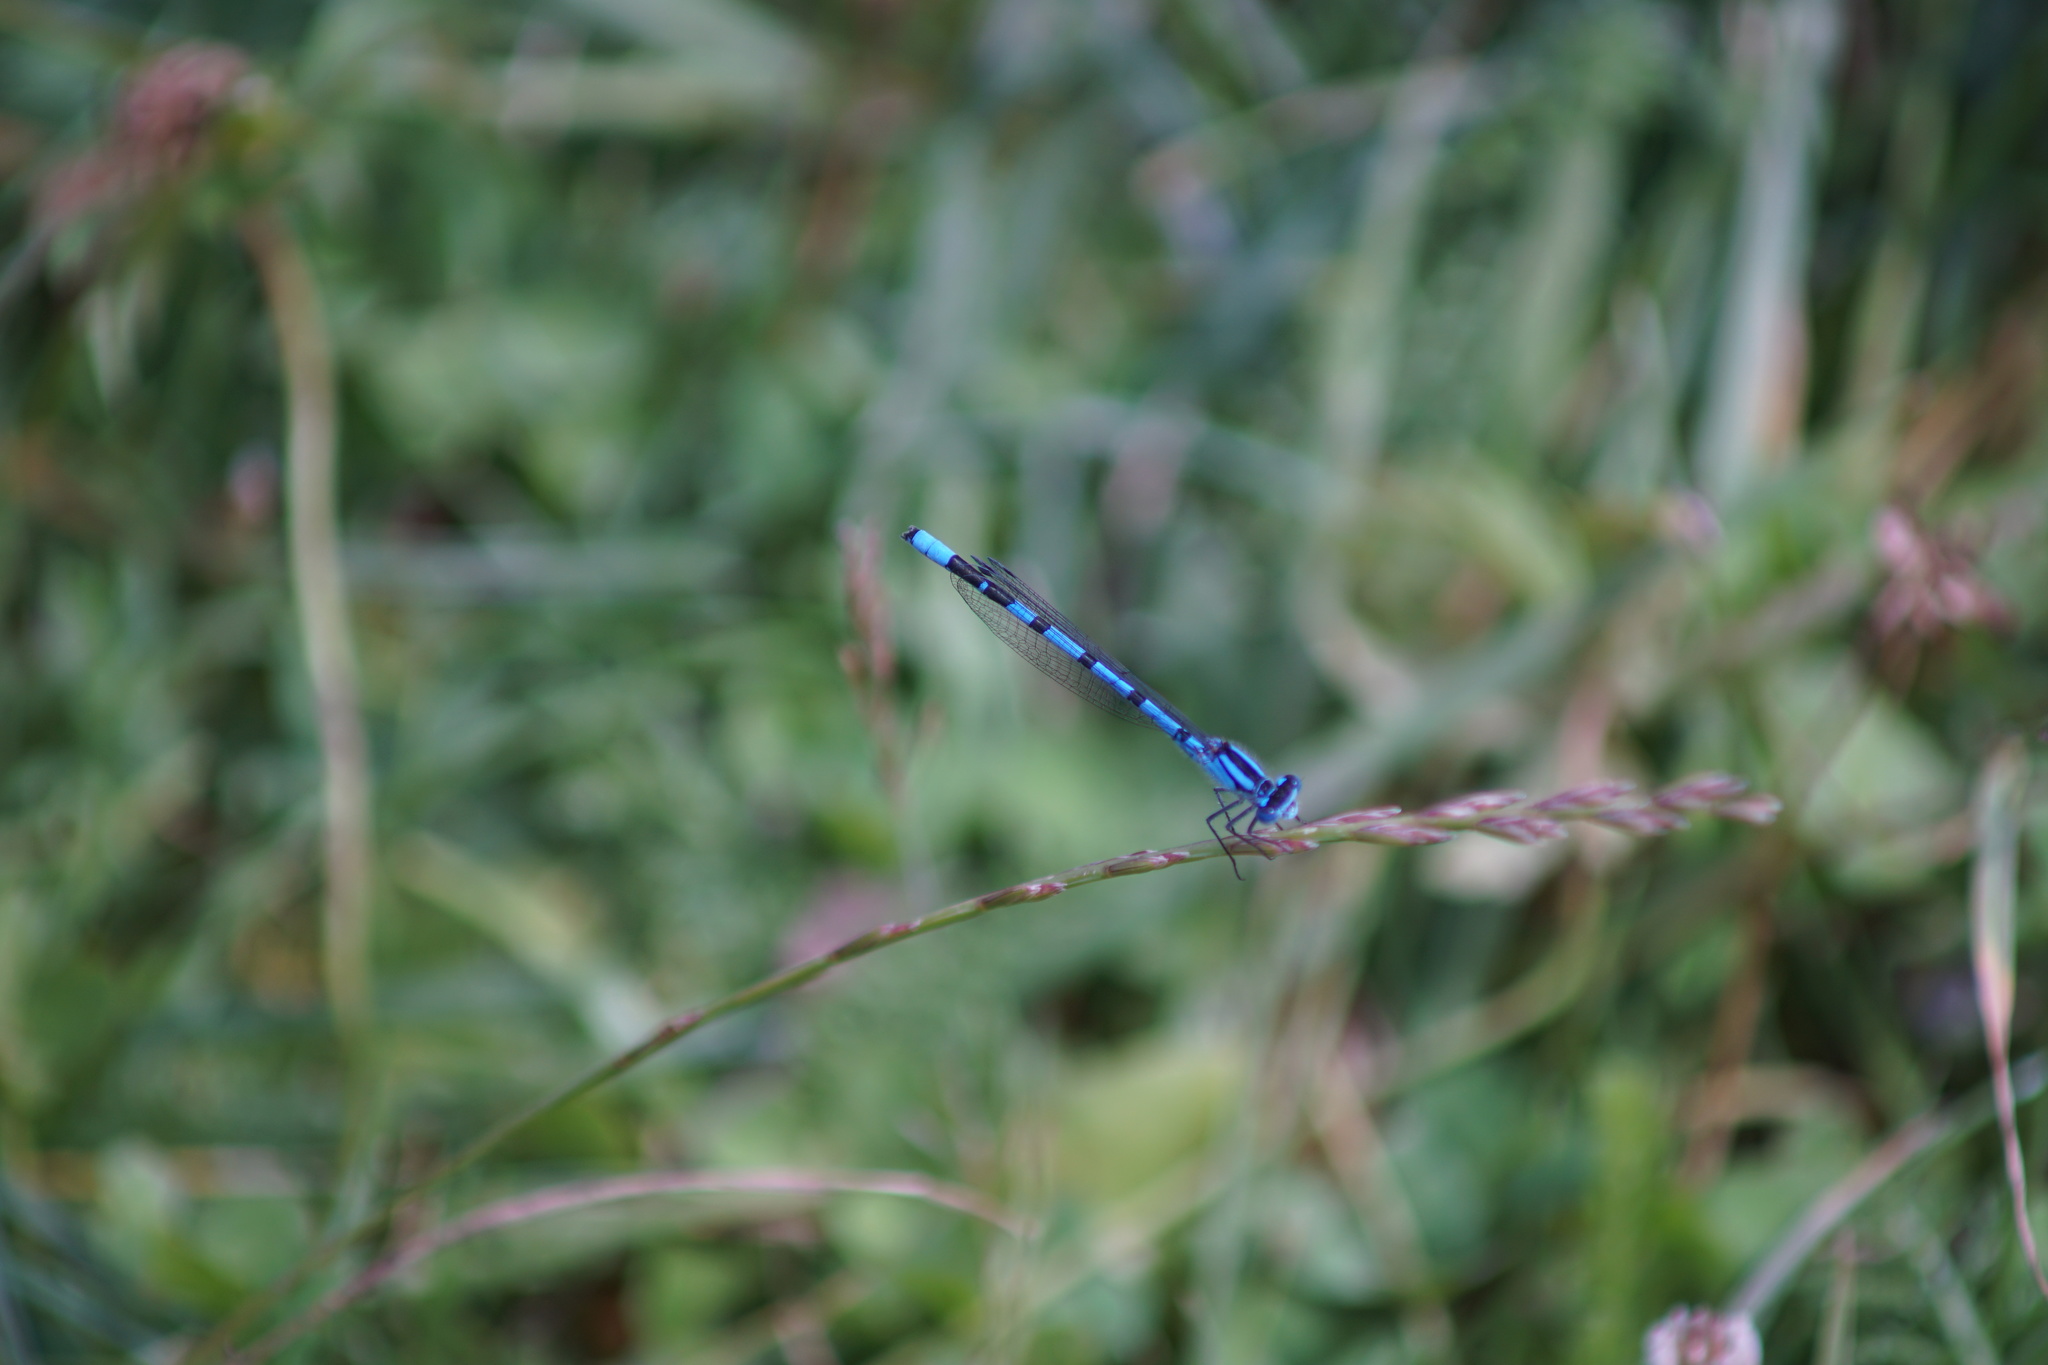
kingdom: Animalia
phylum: Arthropoda
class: Insecta
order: Odonata
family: Coenagrionidae
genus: Enallagma
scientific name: Enallagma cyathigerum
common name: Common blue damselfly
